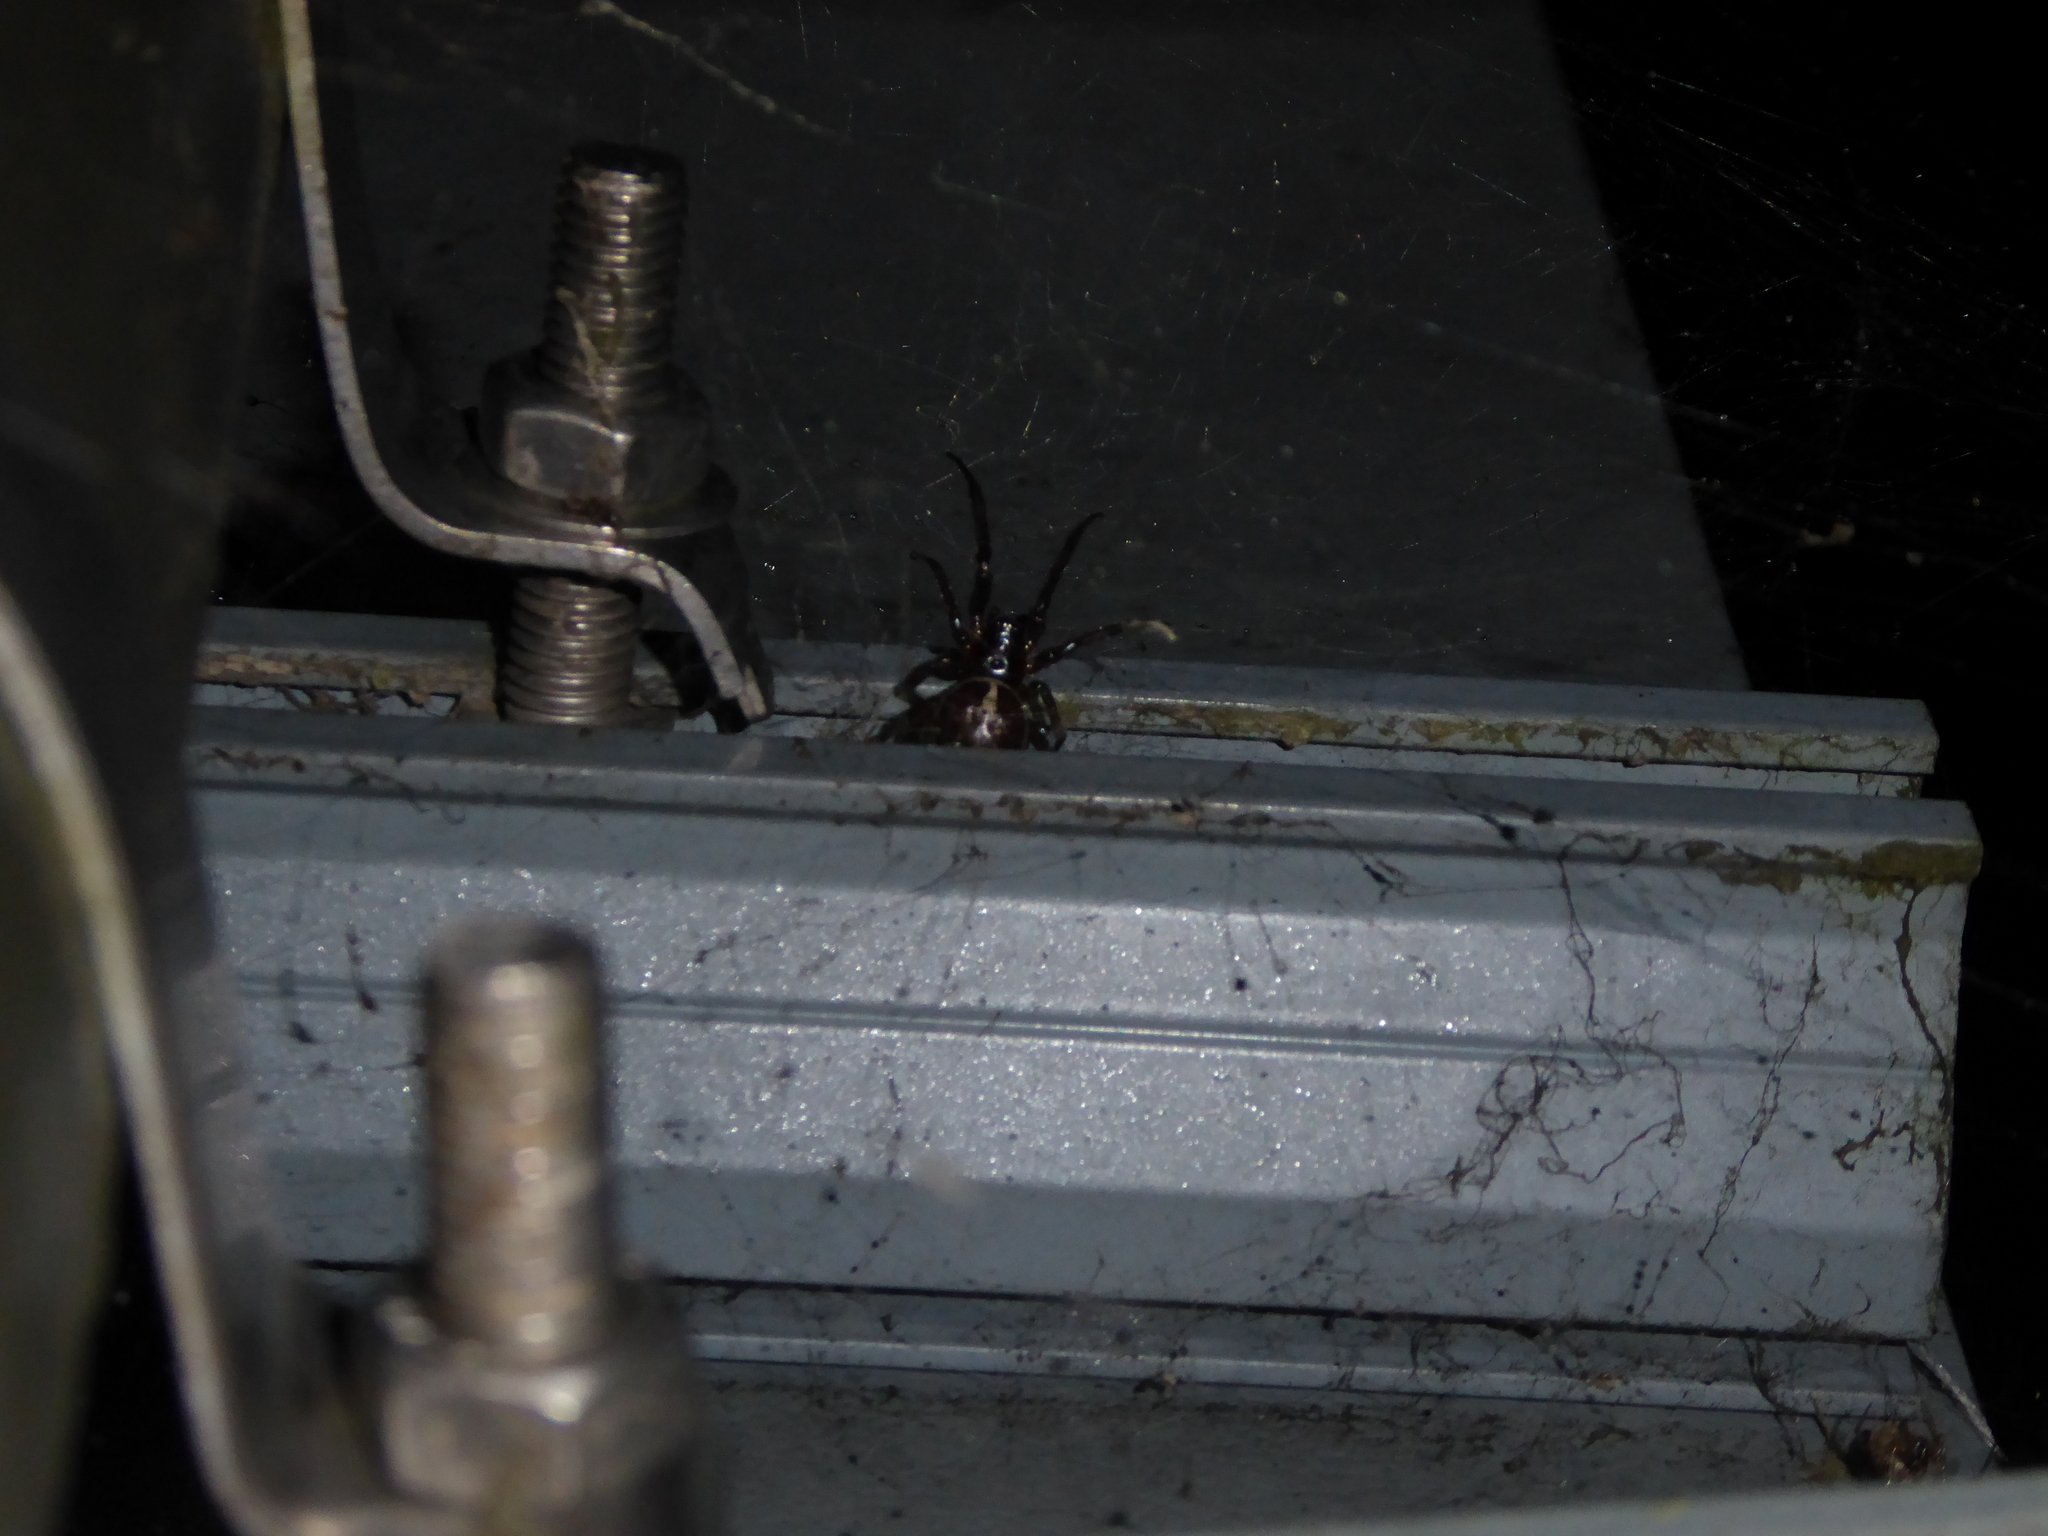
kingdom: Animalia
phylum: Arthropoda
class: Arachnida
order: Araneae
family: Theridiidae
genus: Steatoda
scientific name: Steatoda nobilis
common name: Cobweb weaver
